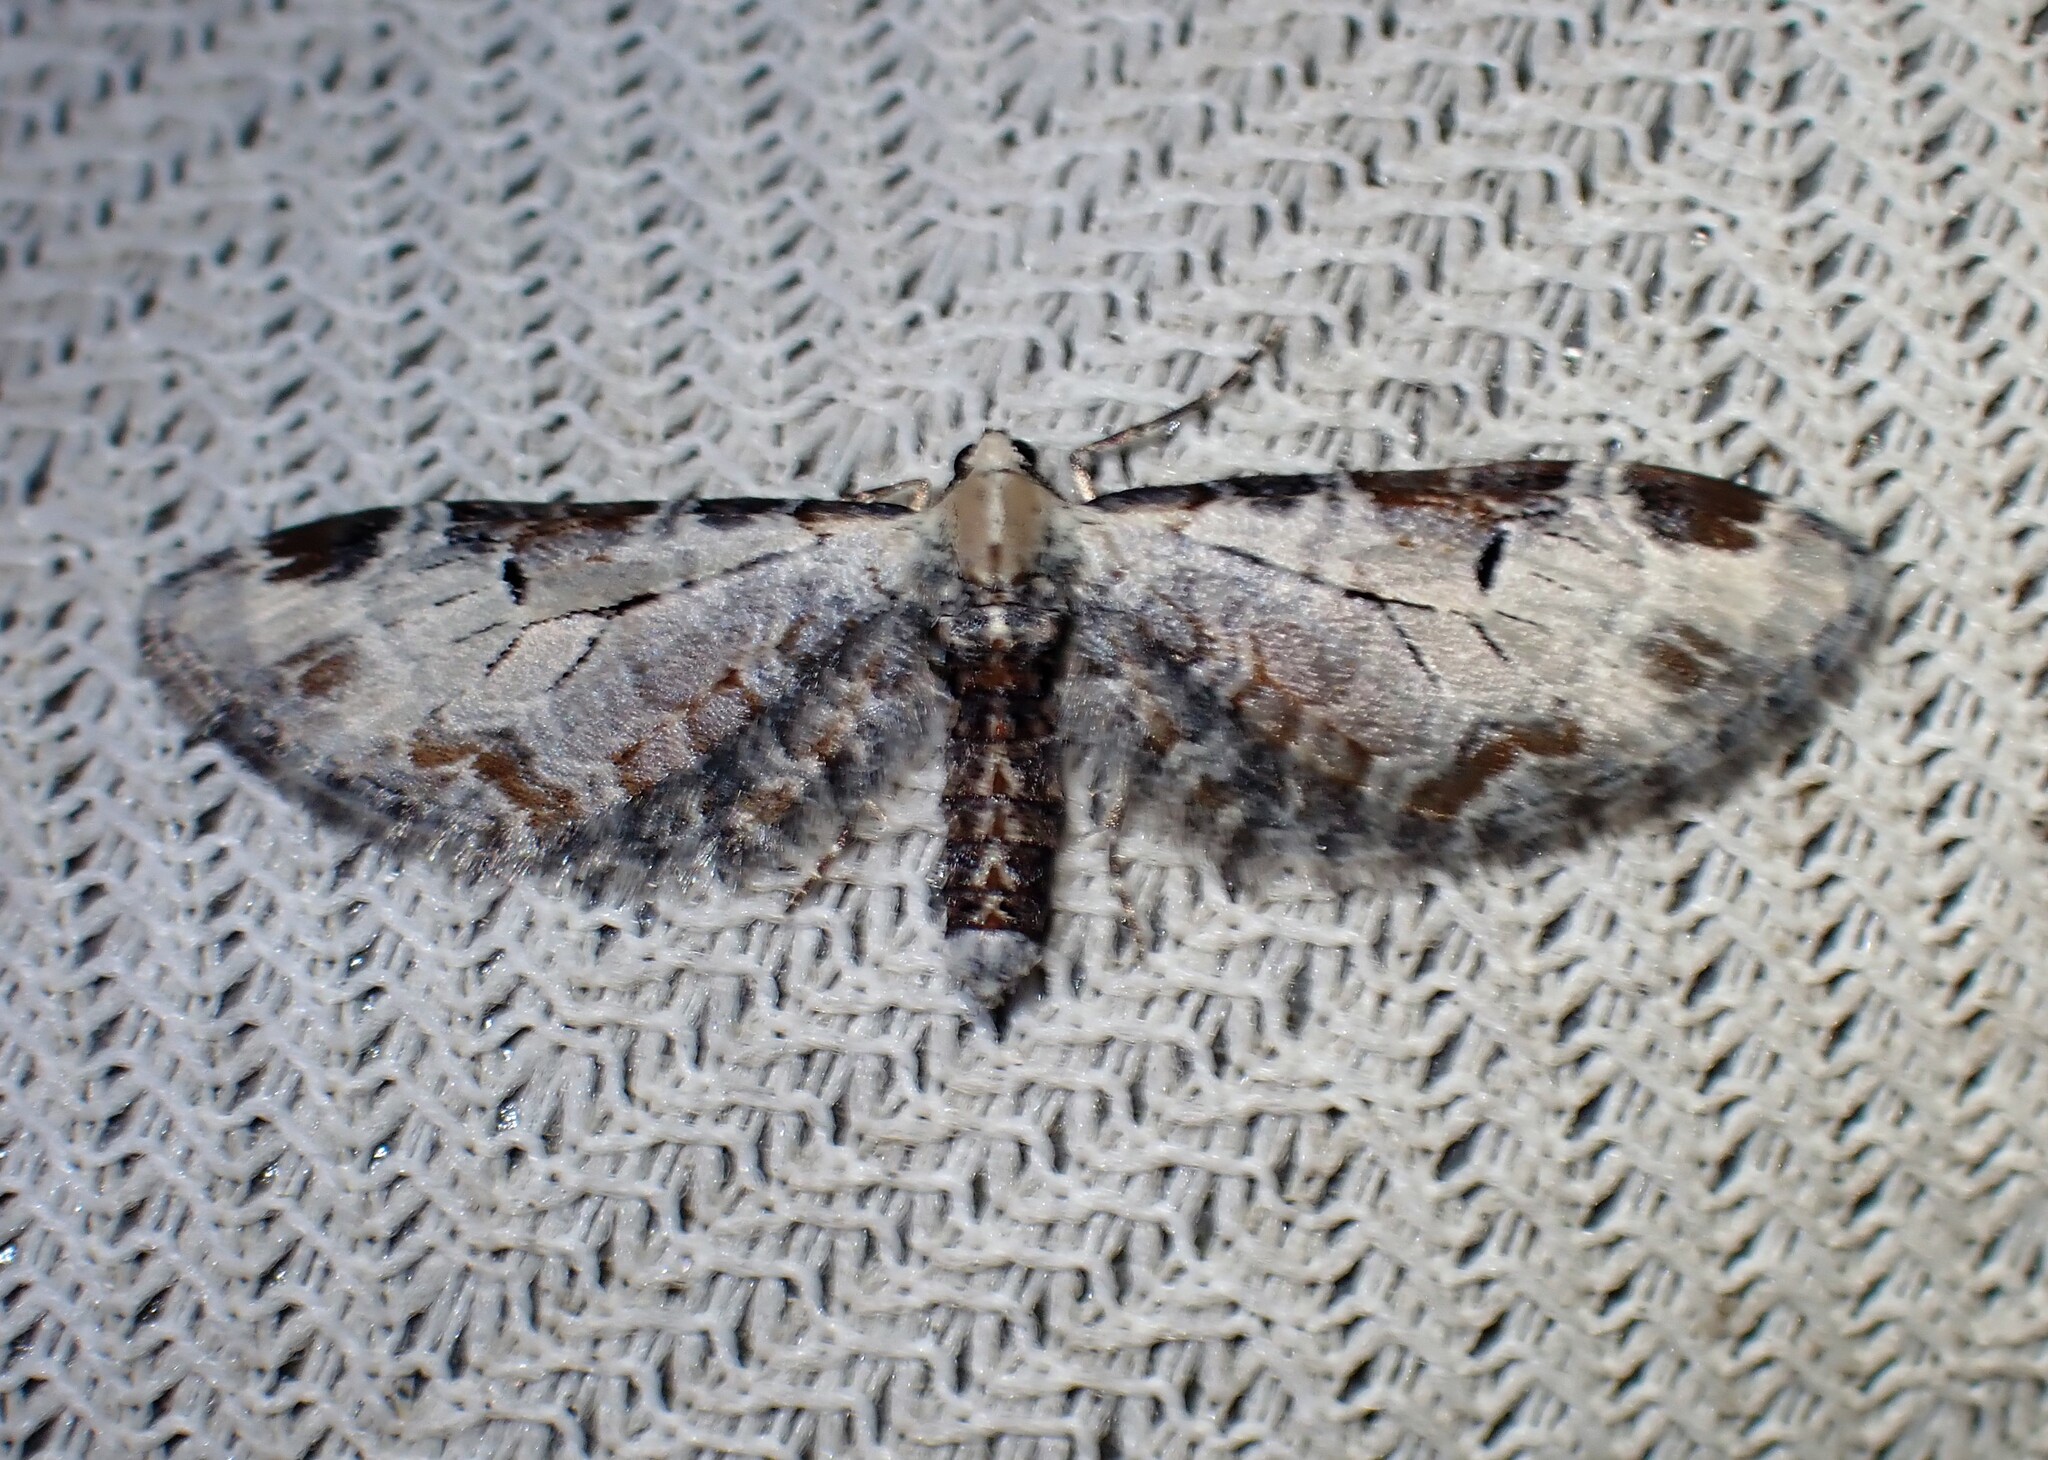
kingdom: Animalia
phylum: Arthropoda
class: Insecta
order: Lepidoptera
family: Geometridae
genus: Eupithecia
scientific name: Eupithecia ravocostaliata
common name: Great varigated pug
